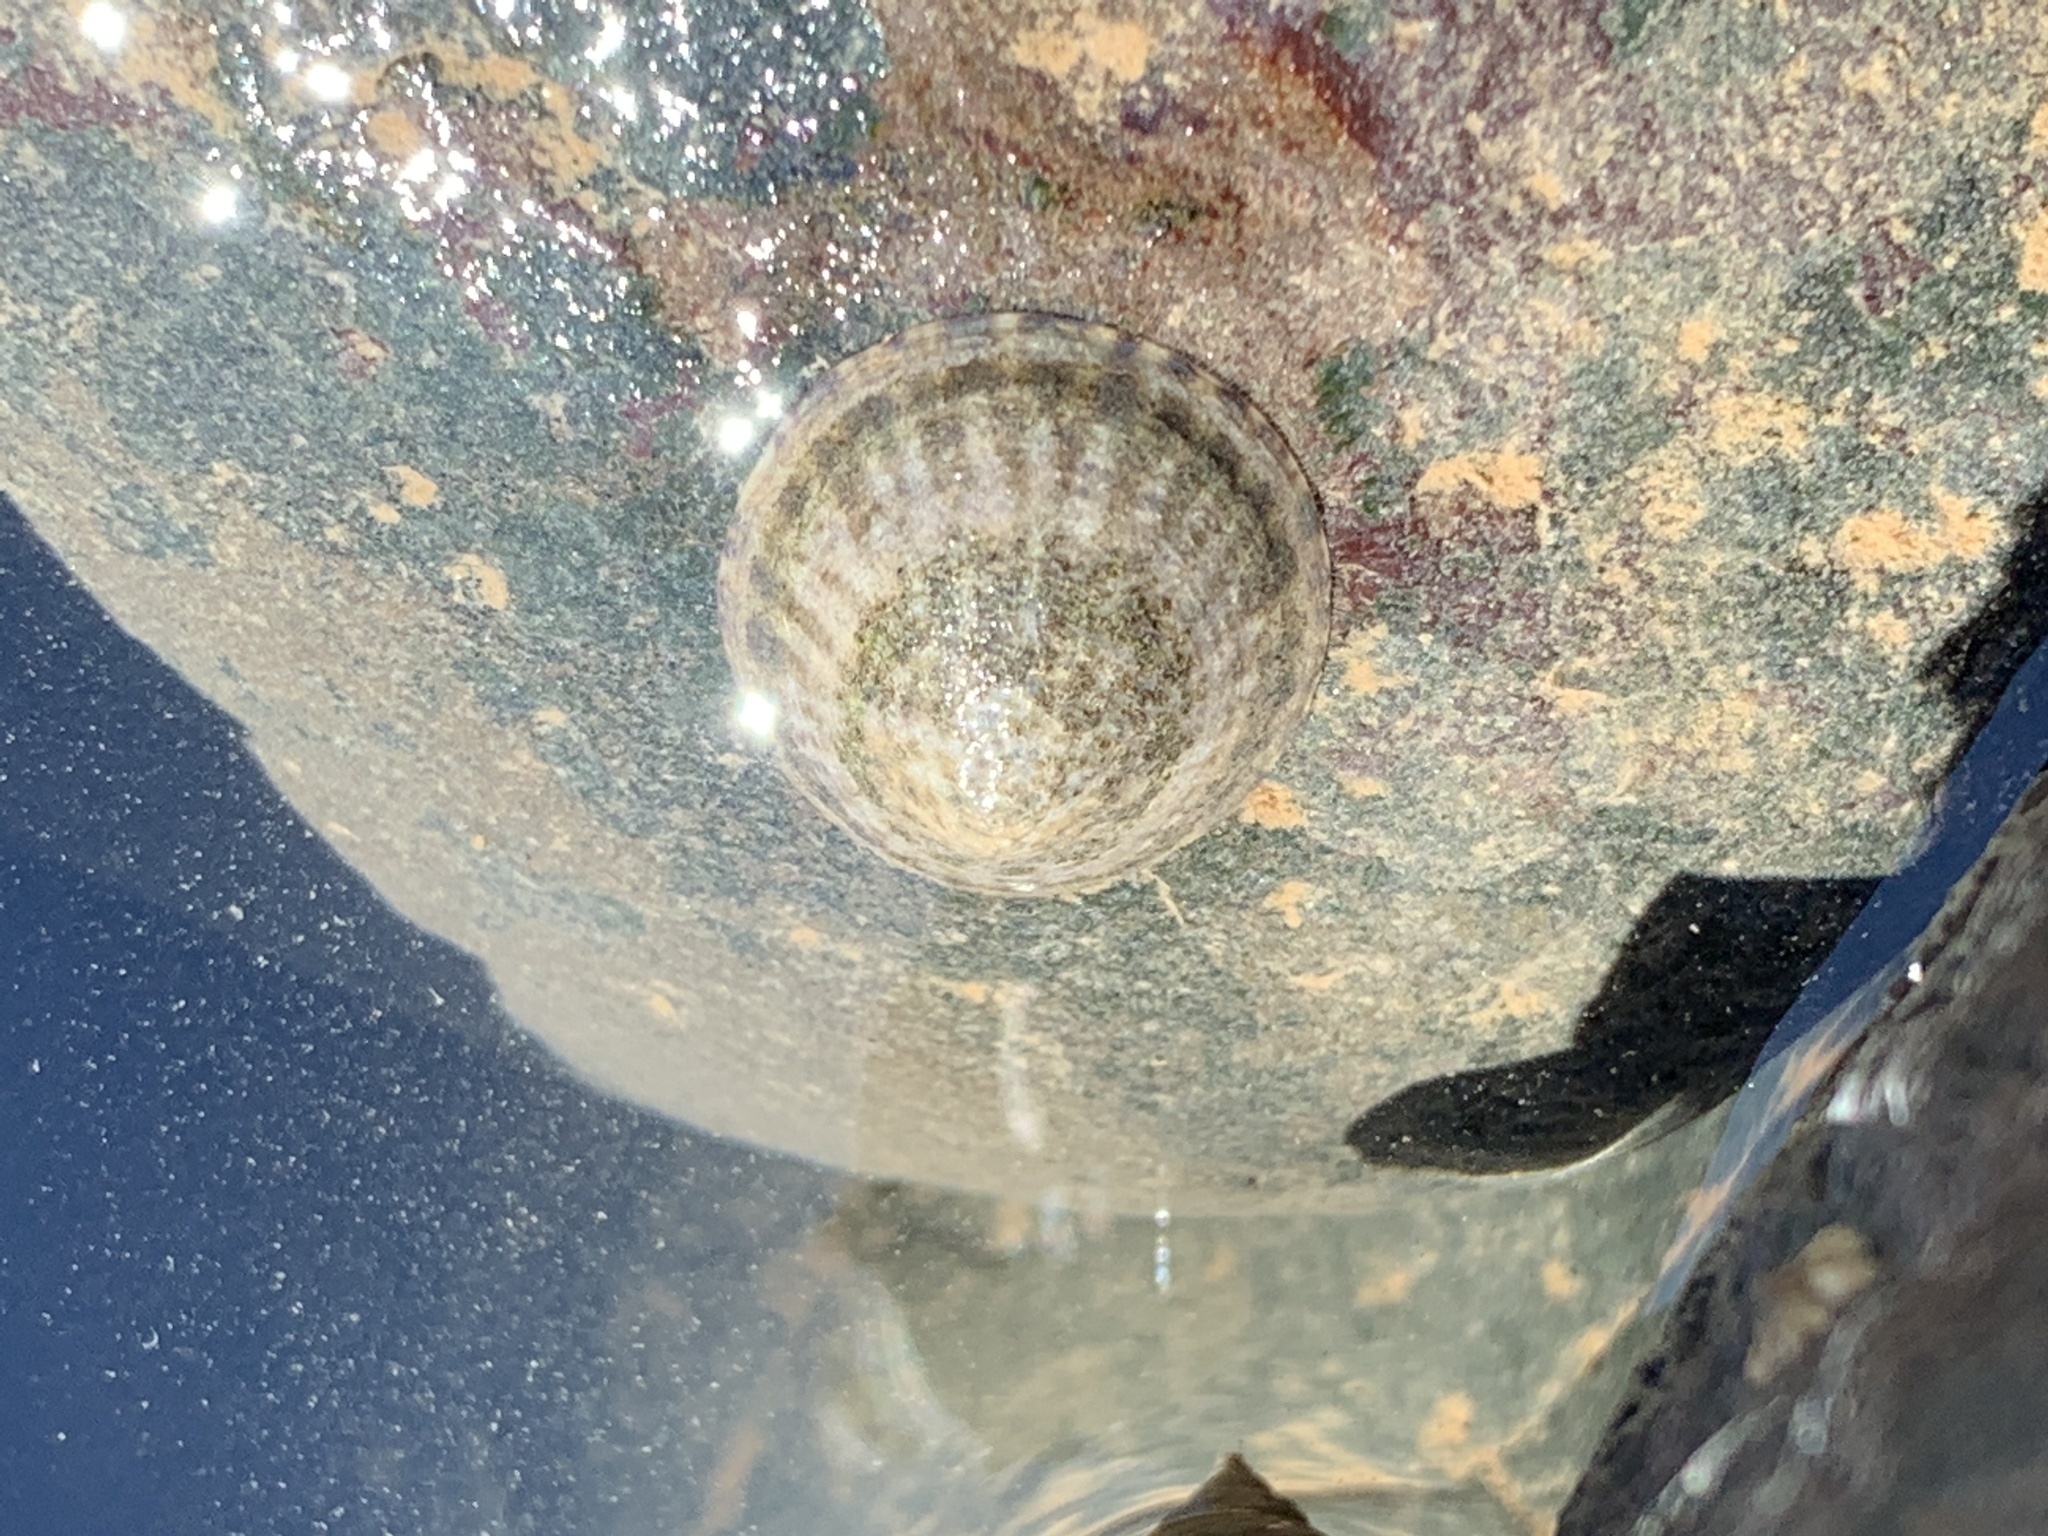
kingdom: Animalia
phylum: Mollusca
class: Gastropoda
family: Lottiidae
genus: Testudinalia
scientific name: Testudinalia testudinalis
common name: Common tortoiseshell limpet
